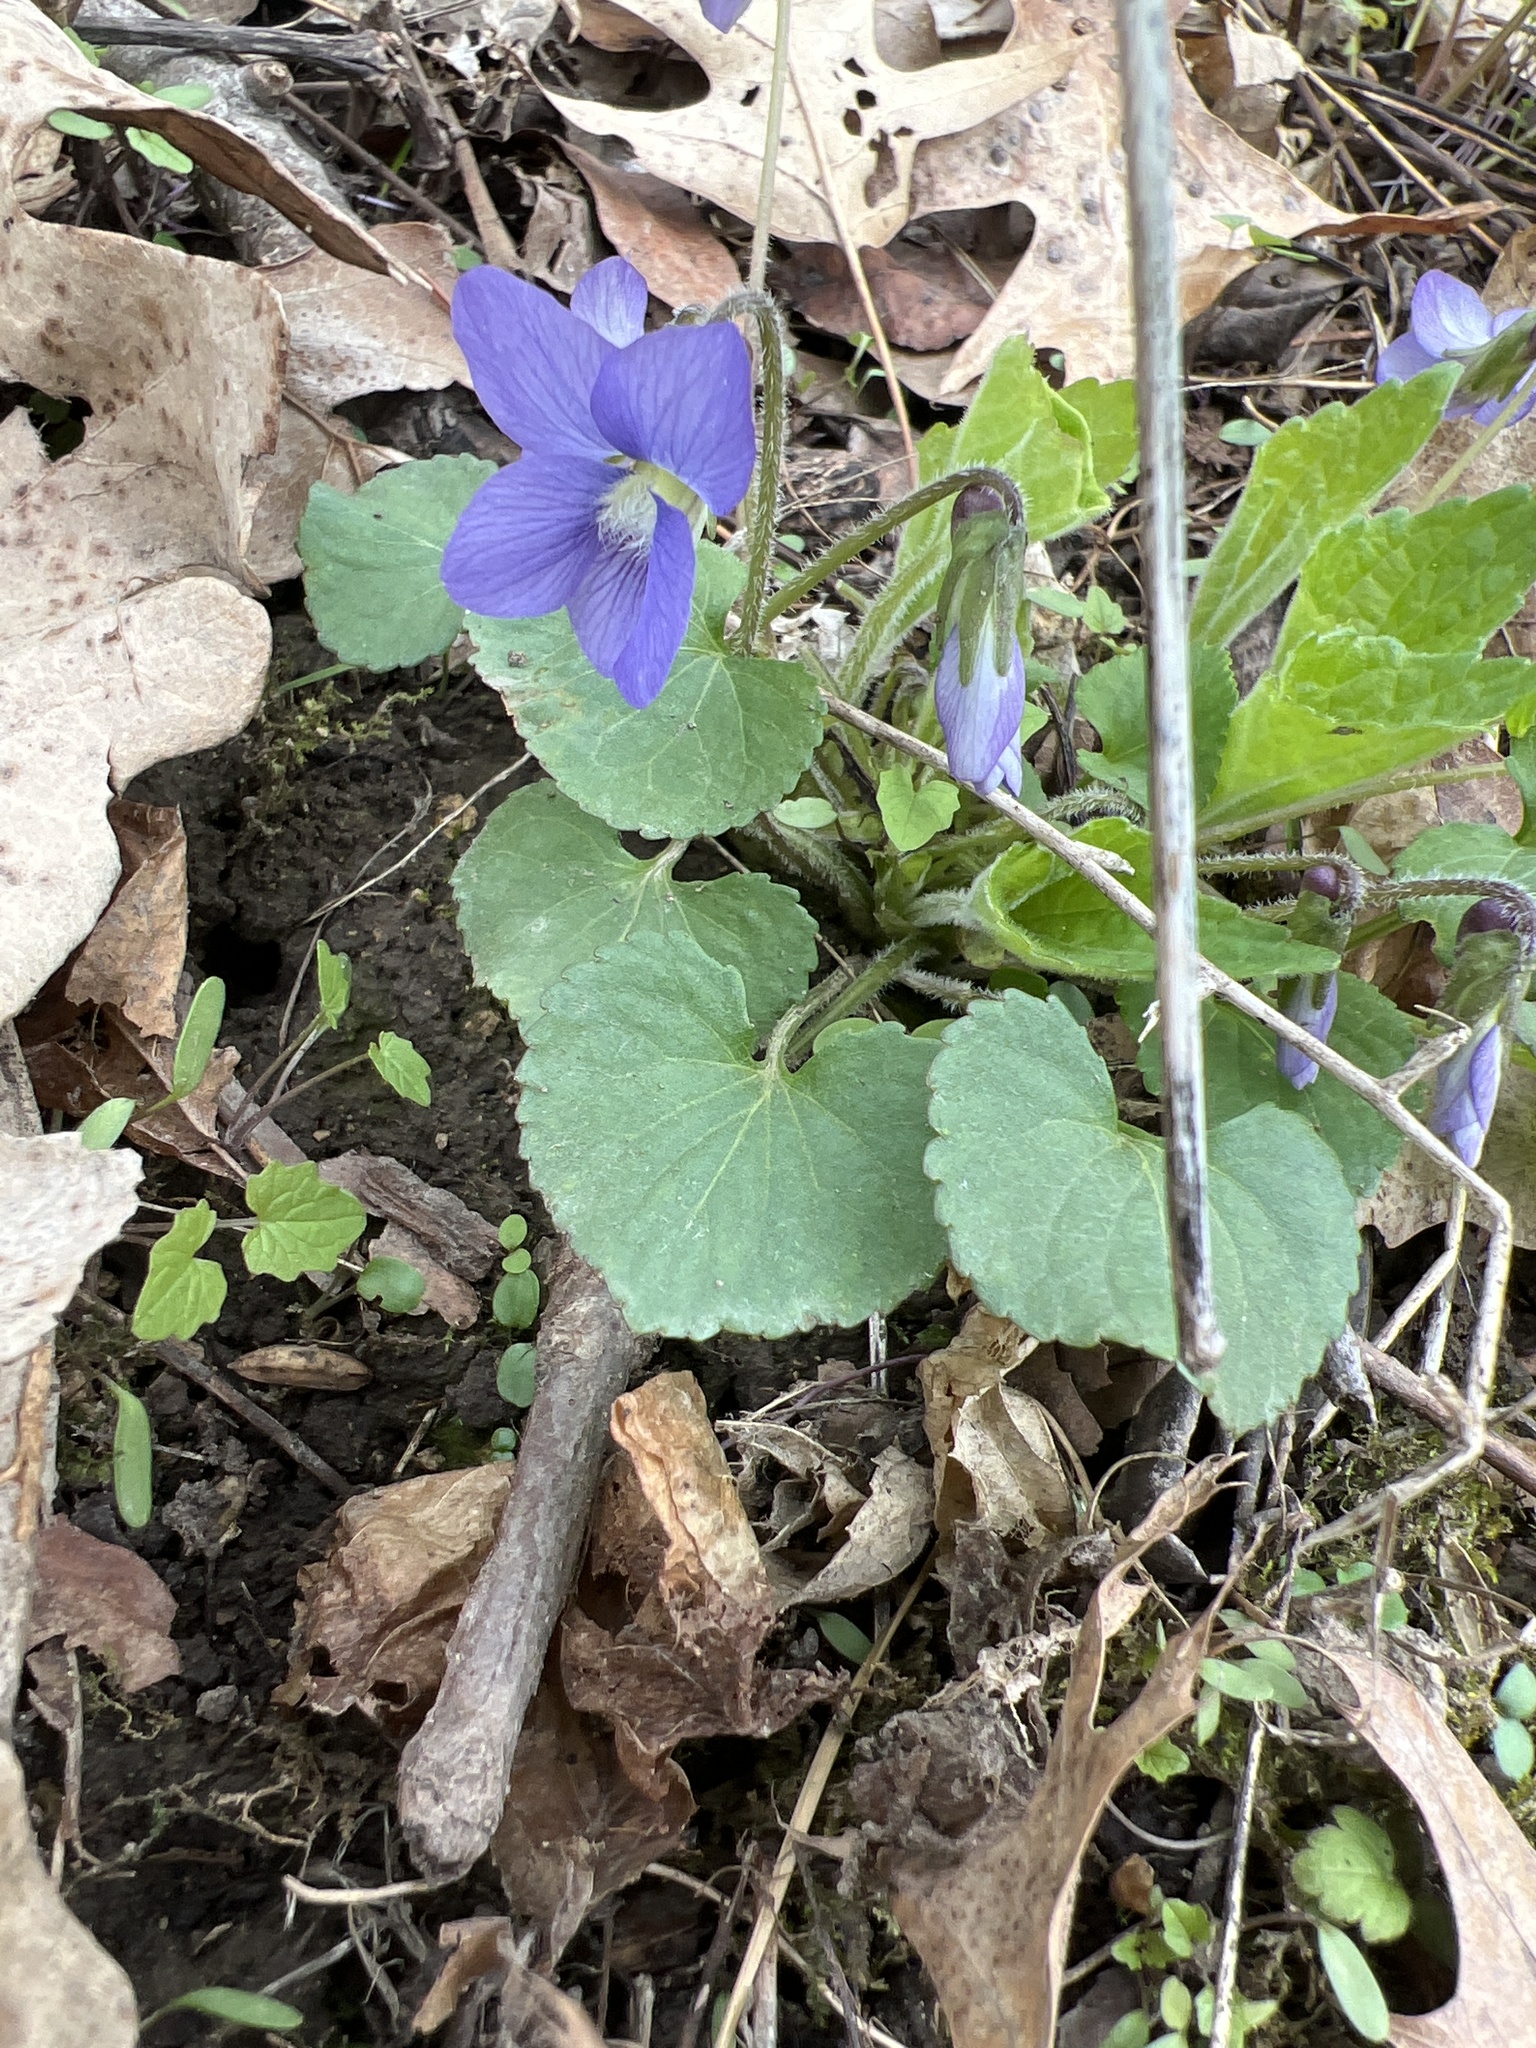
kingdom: Plantae
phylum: Tracheophyta
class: Magnoliopsida
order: Malpighiales
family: Violaceae
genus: Viola
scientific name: Viola sororia
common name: Dooryard violet
